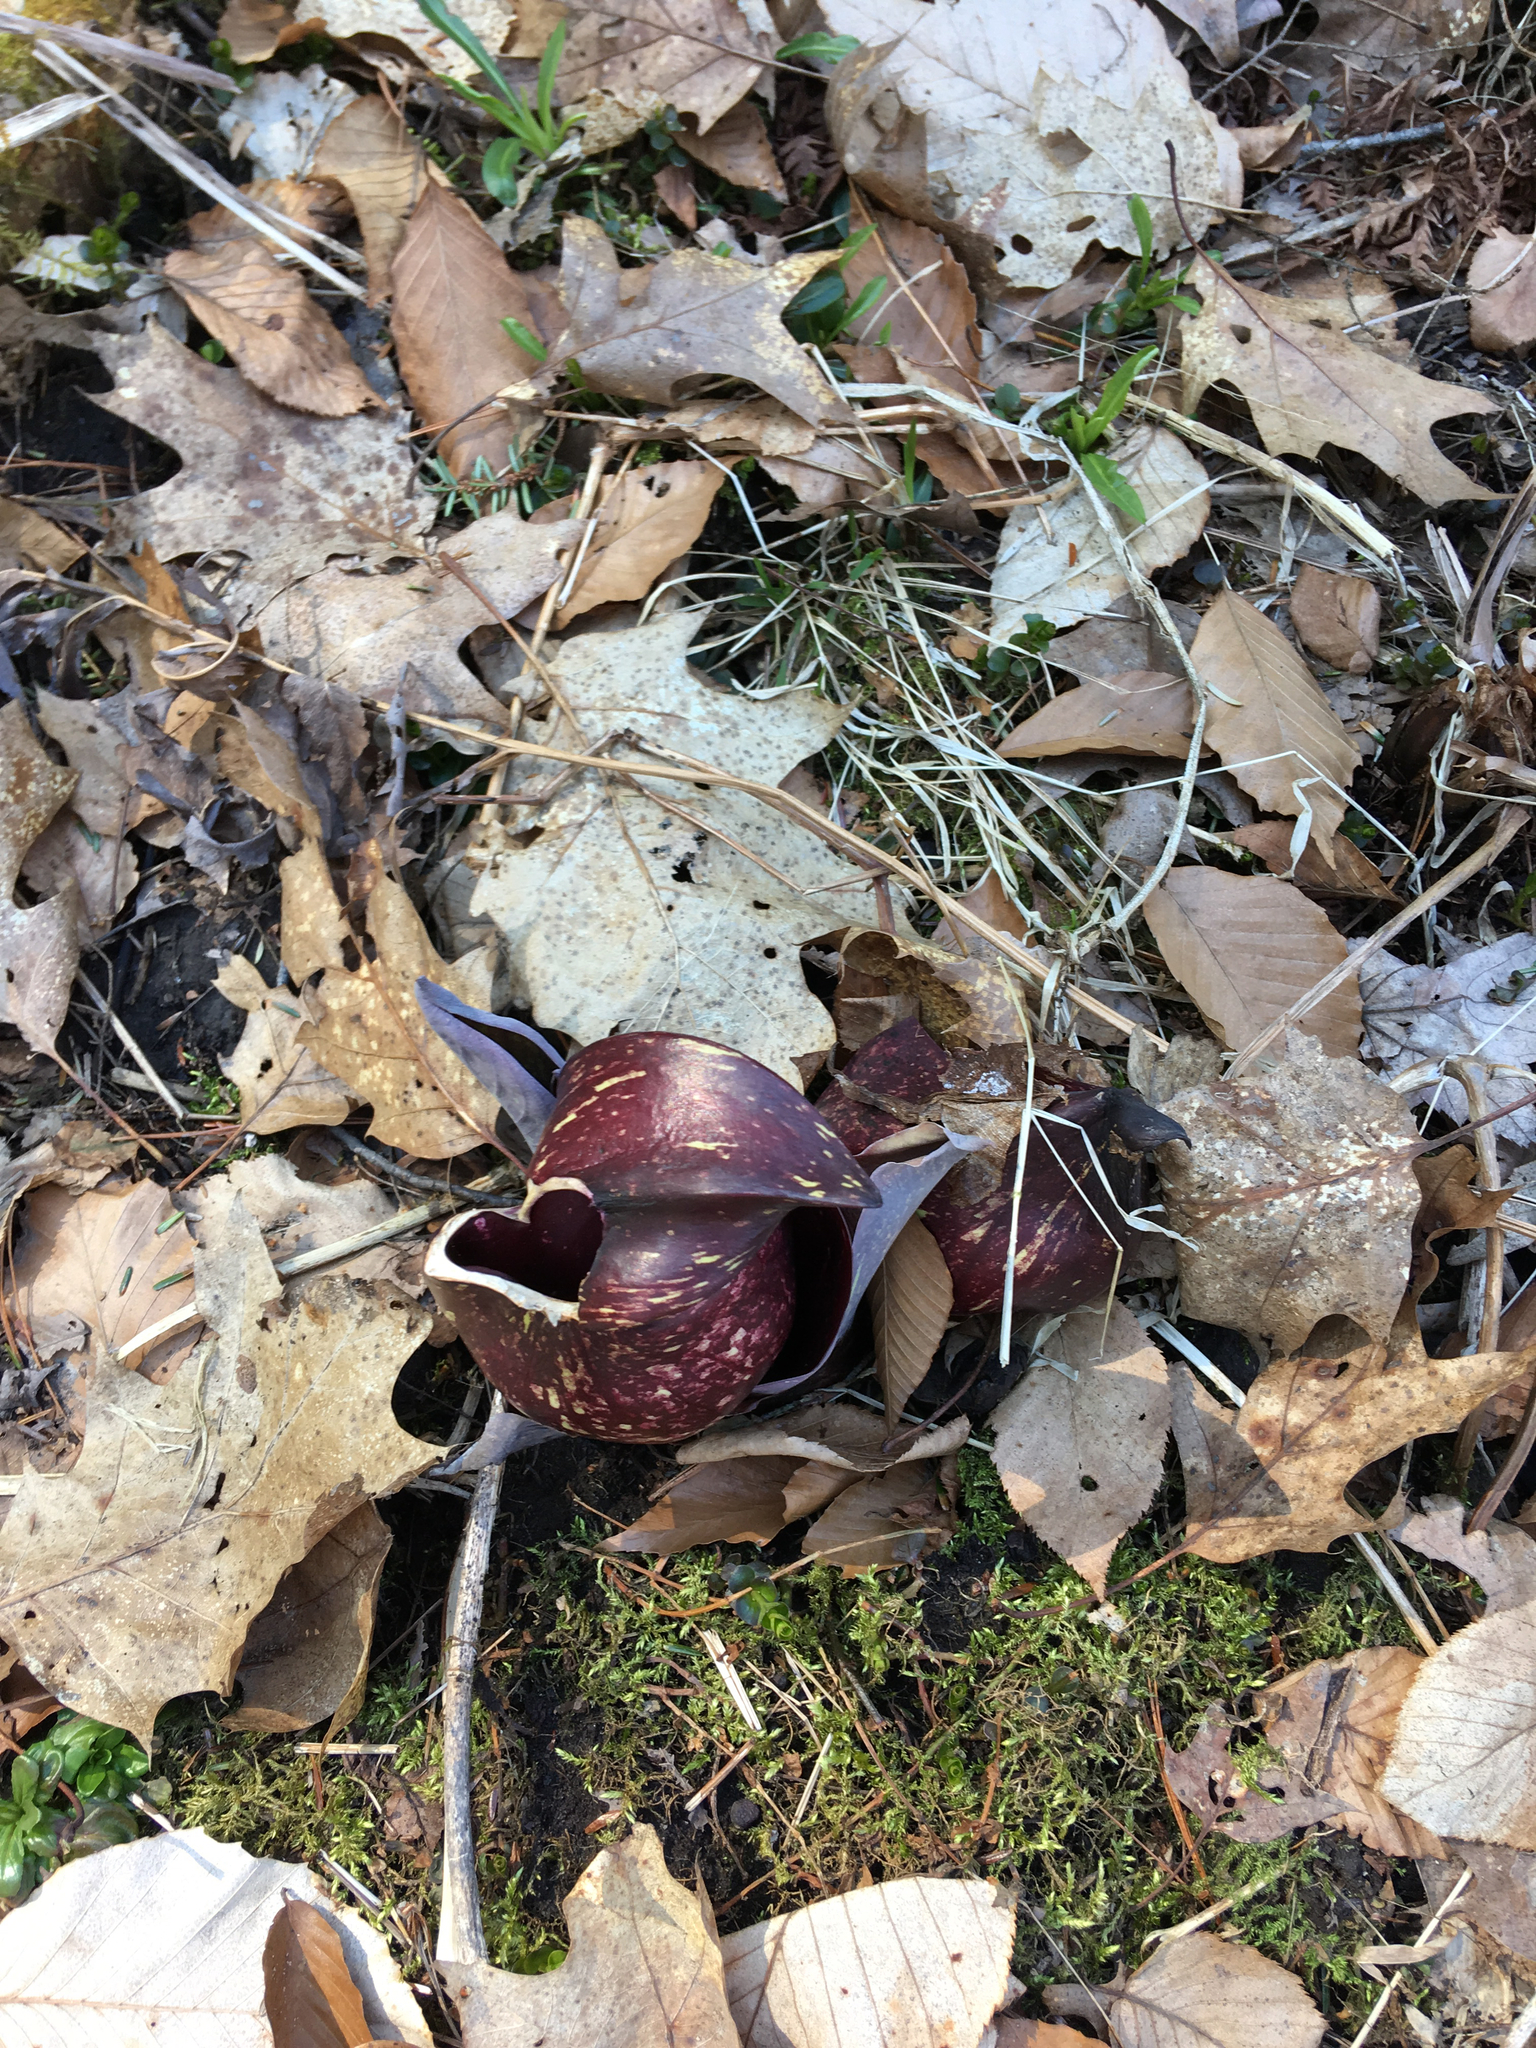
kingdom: Plantae
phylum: Tracheophyta
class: Liliopsida
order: Alismatales
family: Araceae
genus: Symplocarpus
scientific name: Symplocarpus foetidus
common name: Eastern skunk cabbage
